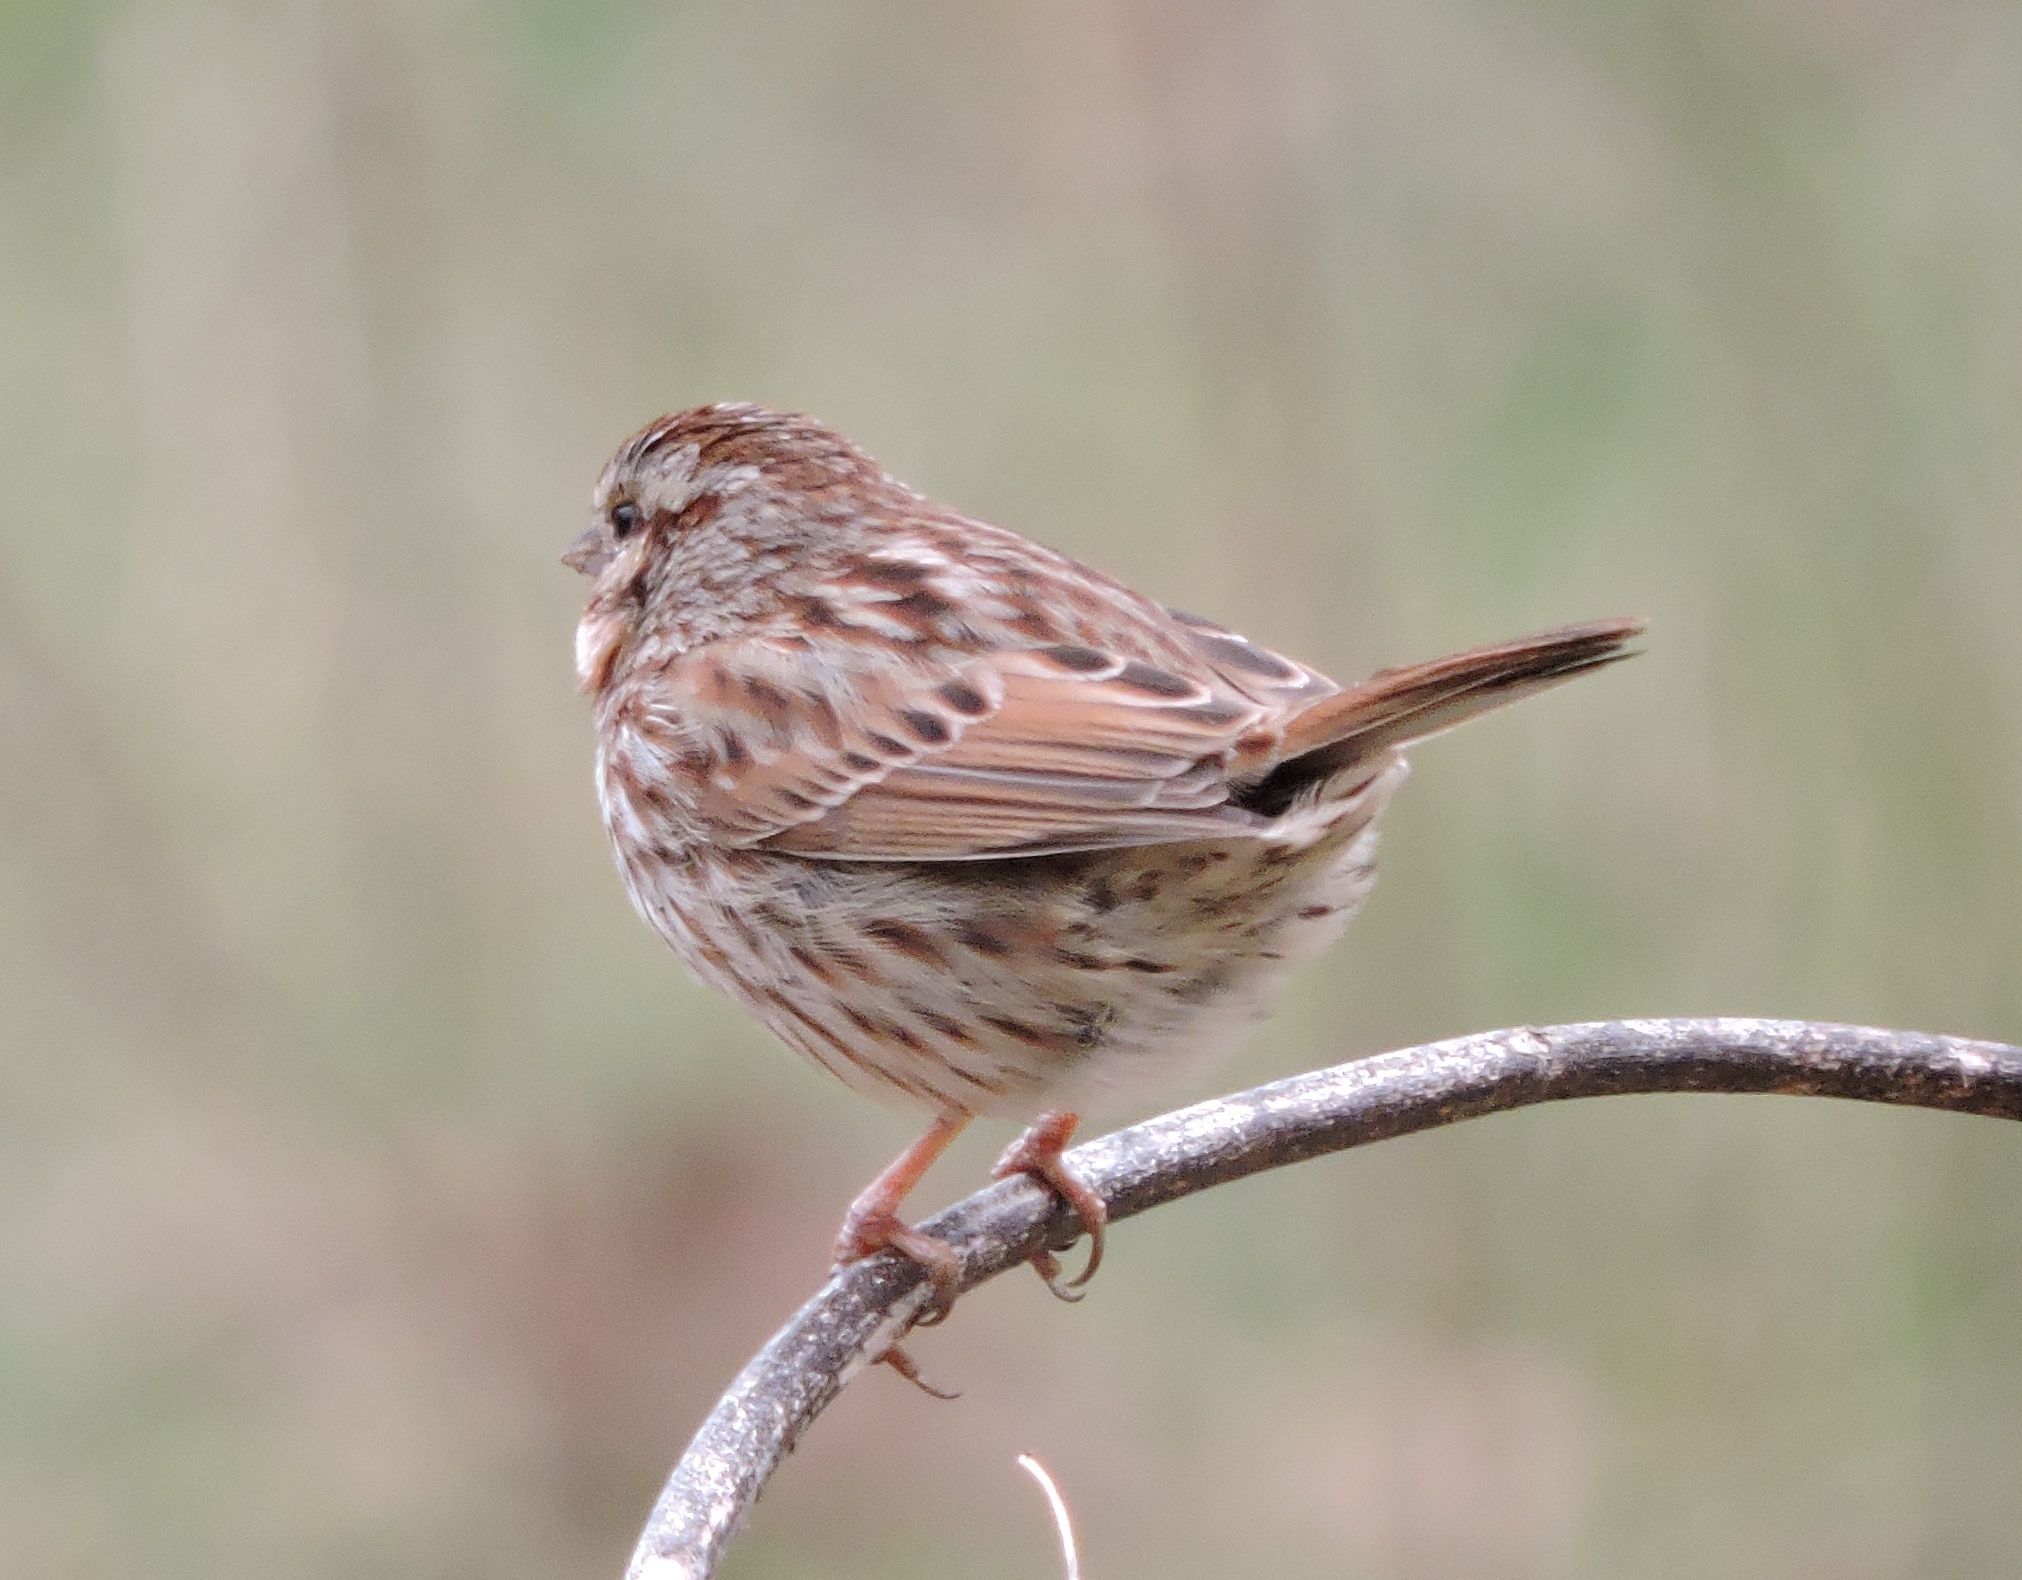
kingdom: Animalia
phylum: Chordata
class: Aves
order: Passeriformes
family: Passerellidae
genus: Melospiza
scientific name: Melospiza melodia
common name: Song sparrow
